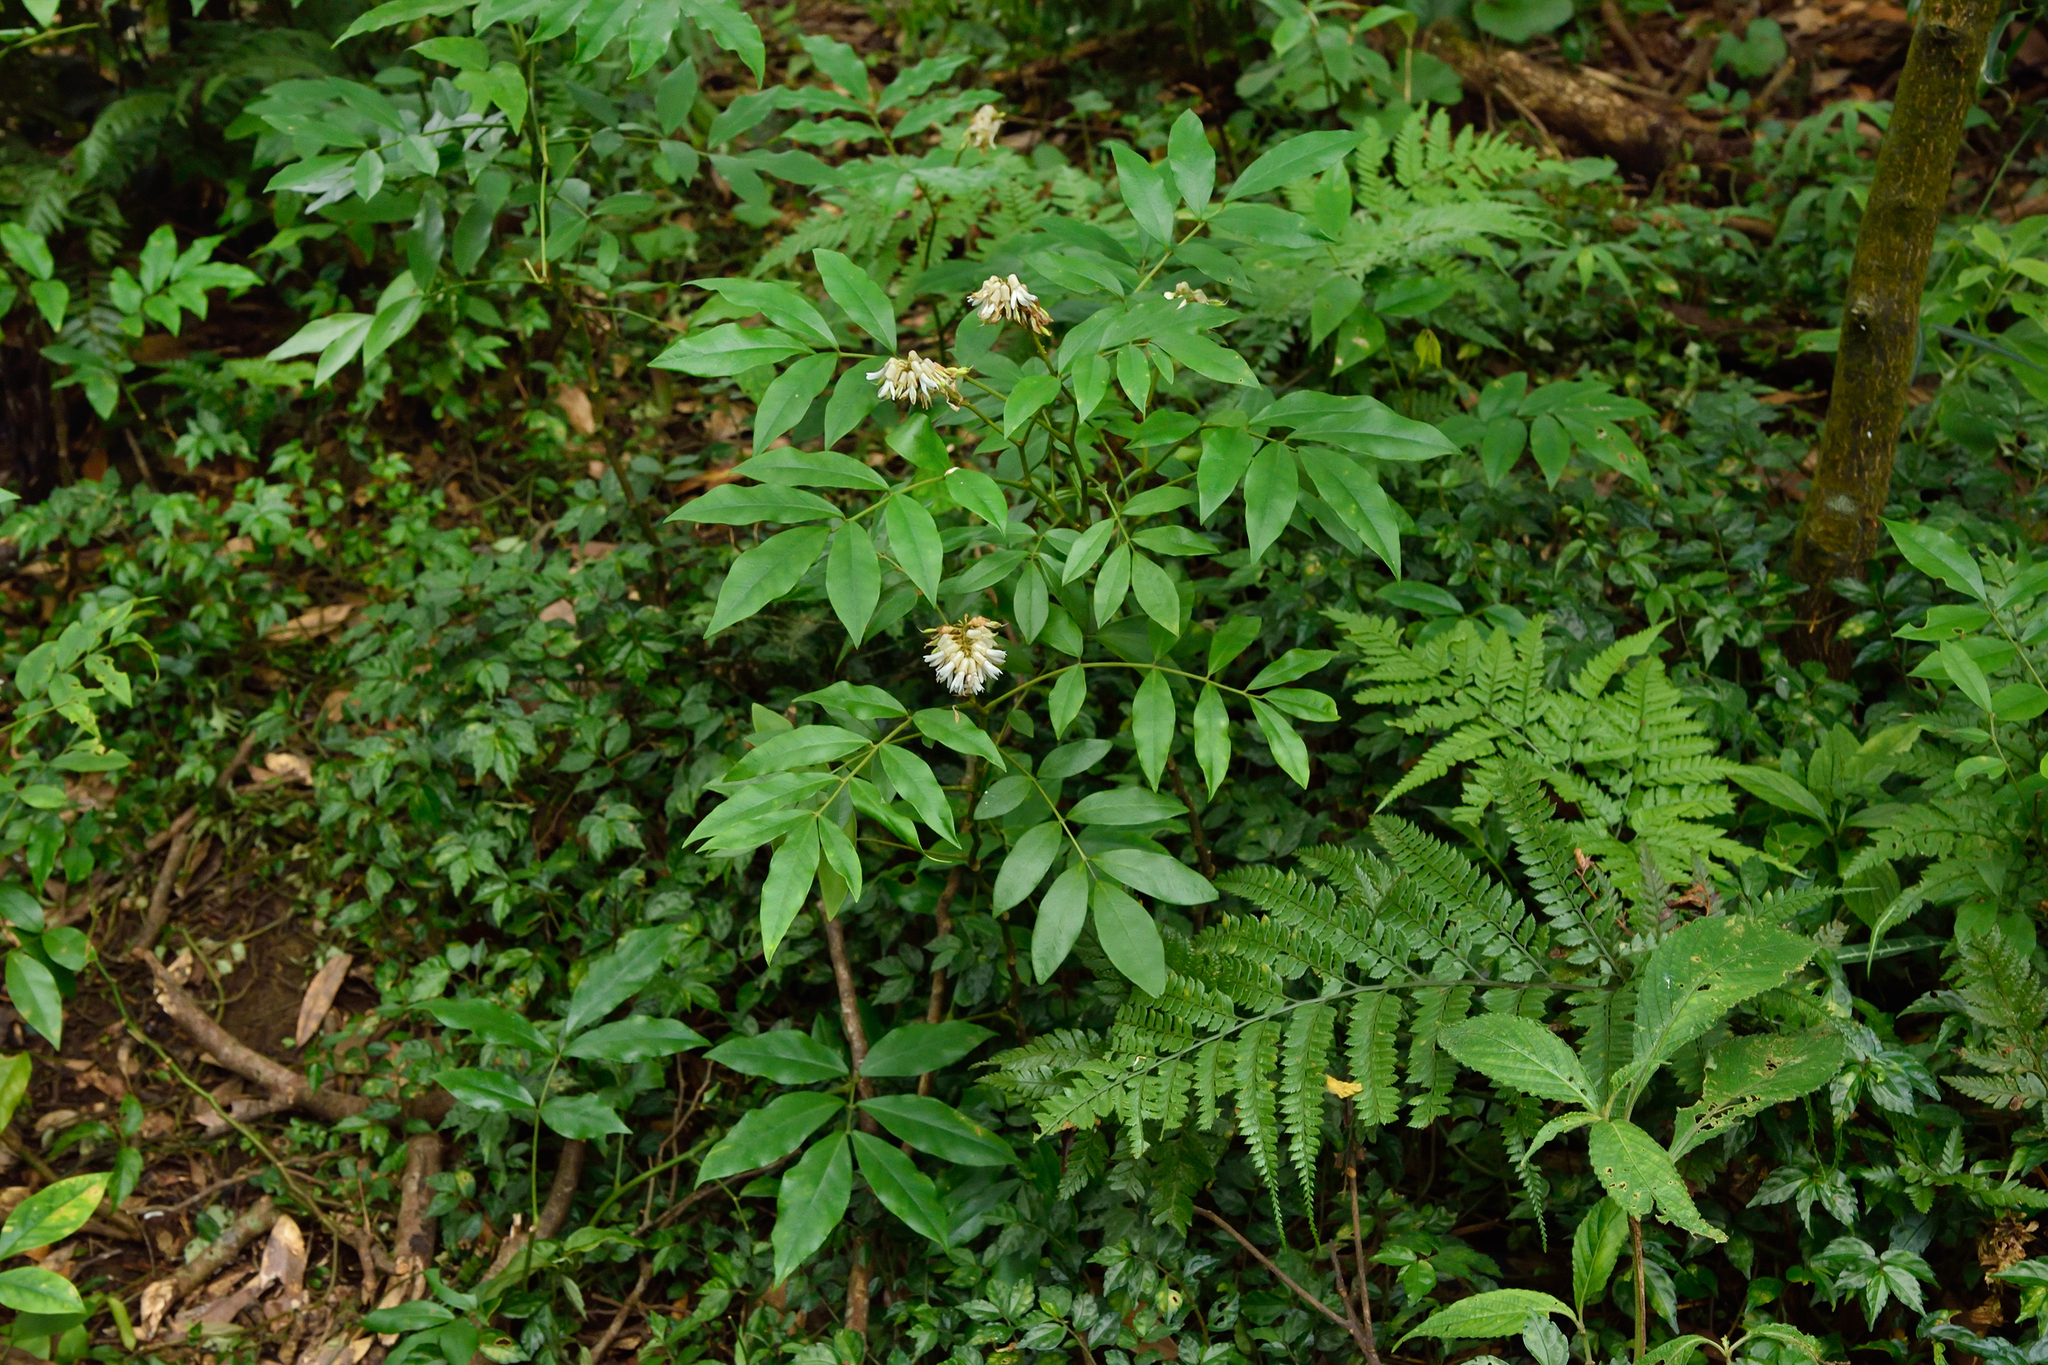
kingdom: Plantae
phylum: Tracheophyta
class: Magnoliopsida
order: Fabales
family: Fabaceae
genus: Euchresta
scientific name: Euchresta formosana
